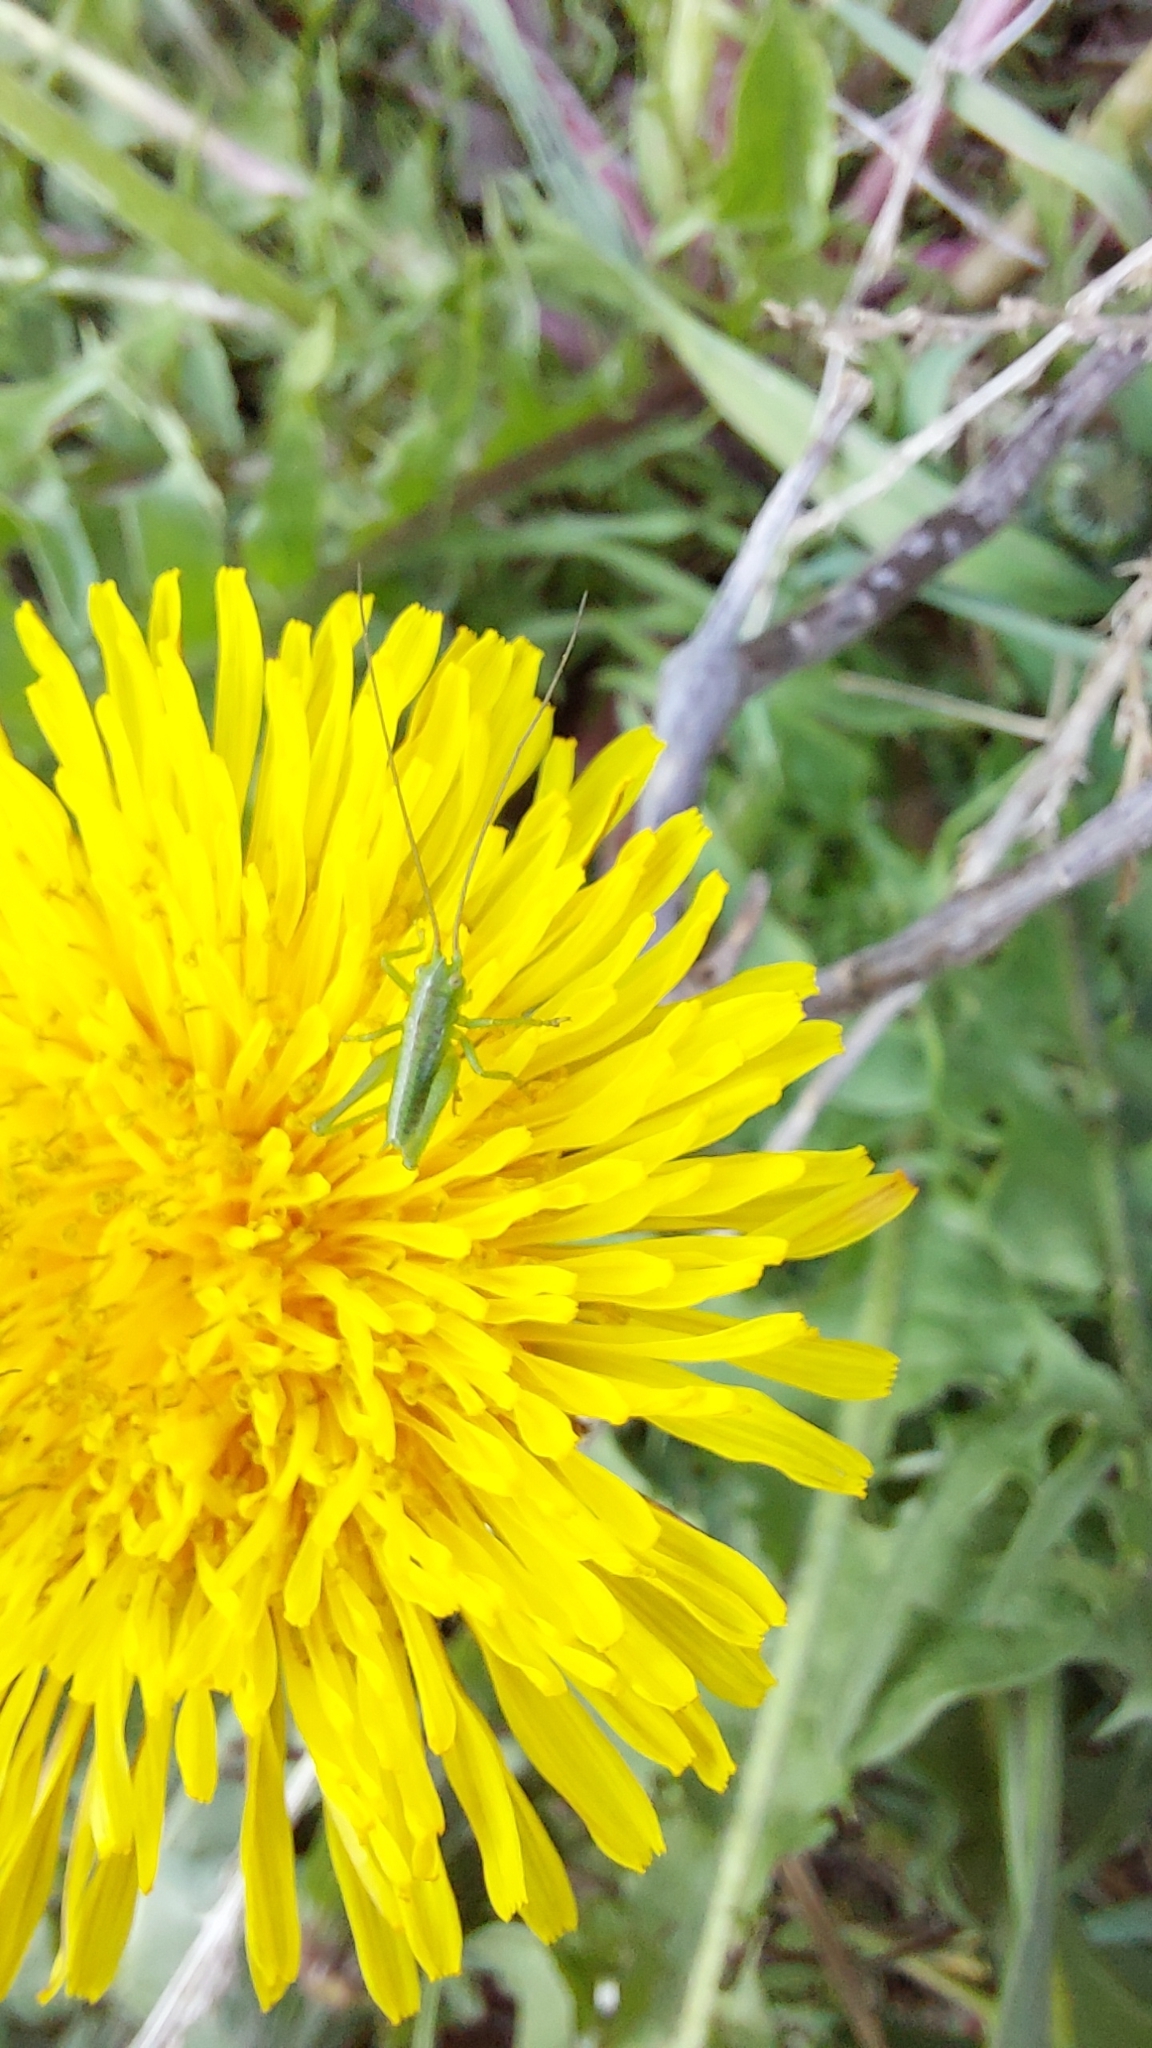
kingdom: Animalia
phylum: Arthropoda
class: Insecta
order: Orthoptera
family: Tettigoniidae
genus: Tettigonia
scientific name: Tettigonia viridissima
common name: Great green bush-cricket
